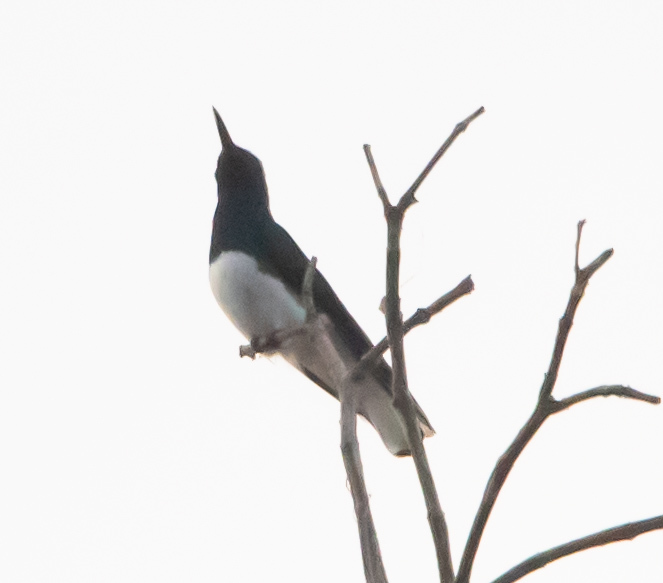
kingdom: Animalia
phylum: Chordata
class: Aves
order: Apodiformes
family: Trochilidae
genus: Florisuga
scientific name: Florisuga mellivora
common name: White-necked jacobin
